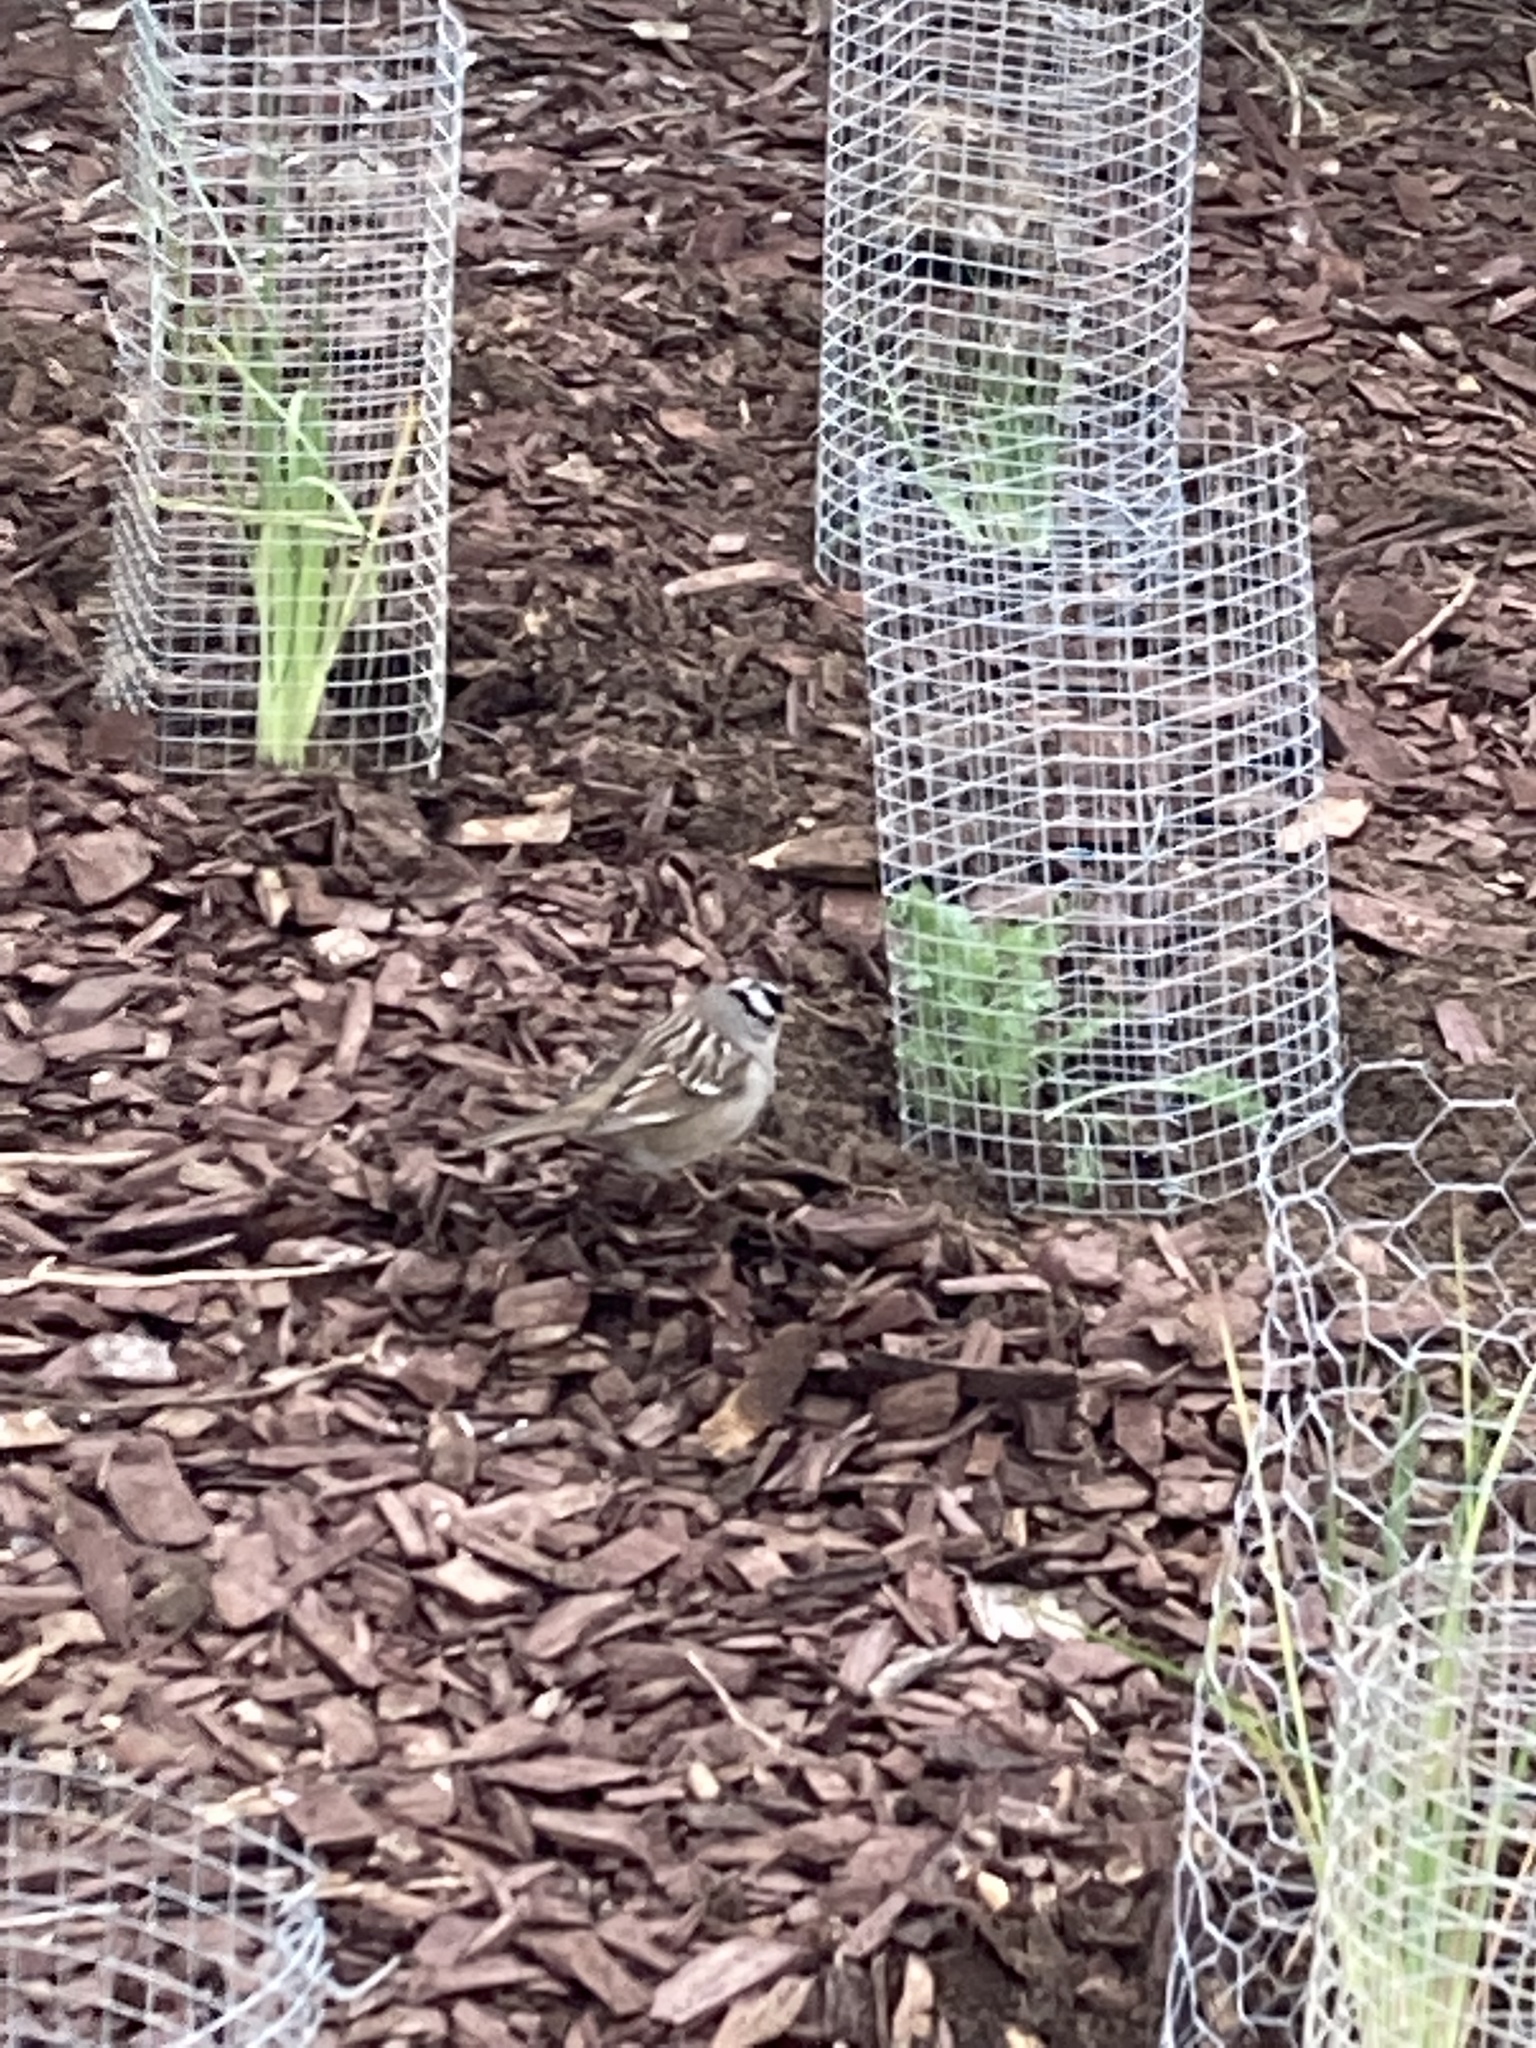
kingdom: Animalia
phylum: Chordata
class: Aves
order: Passeriformes
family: Passerellidae
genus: Zonotrichia
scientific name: Zonotrichia leucophrys
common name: White-crowned sparrow
